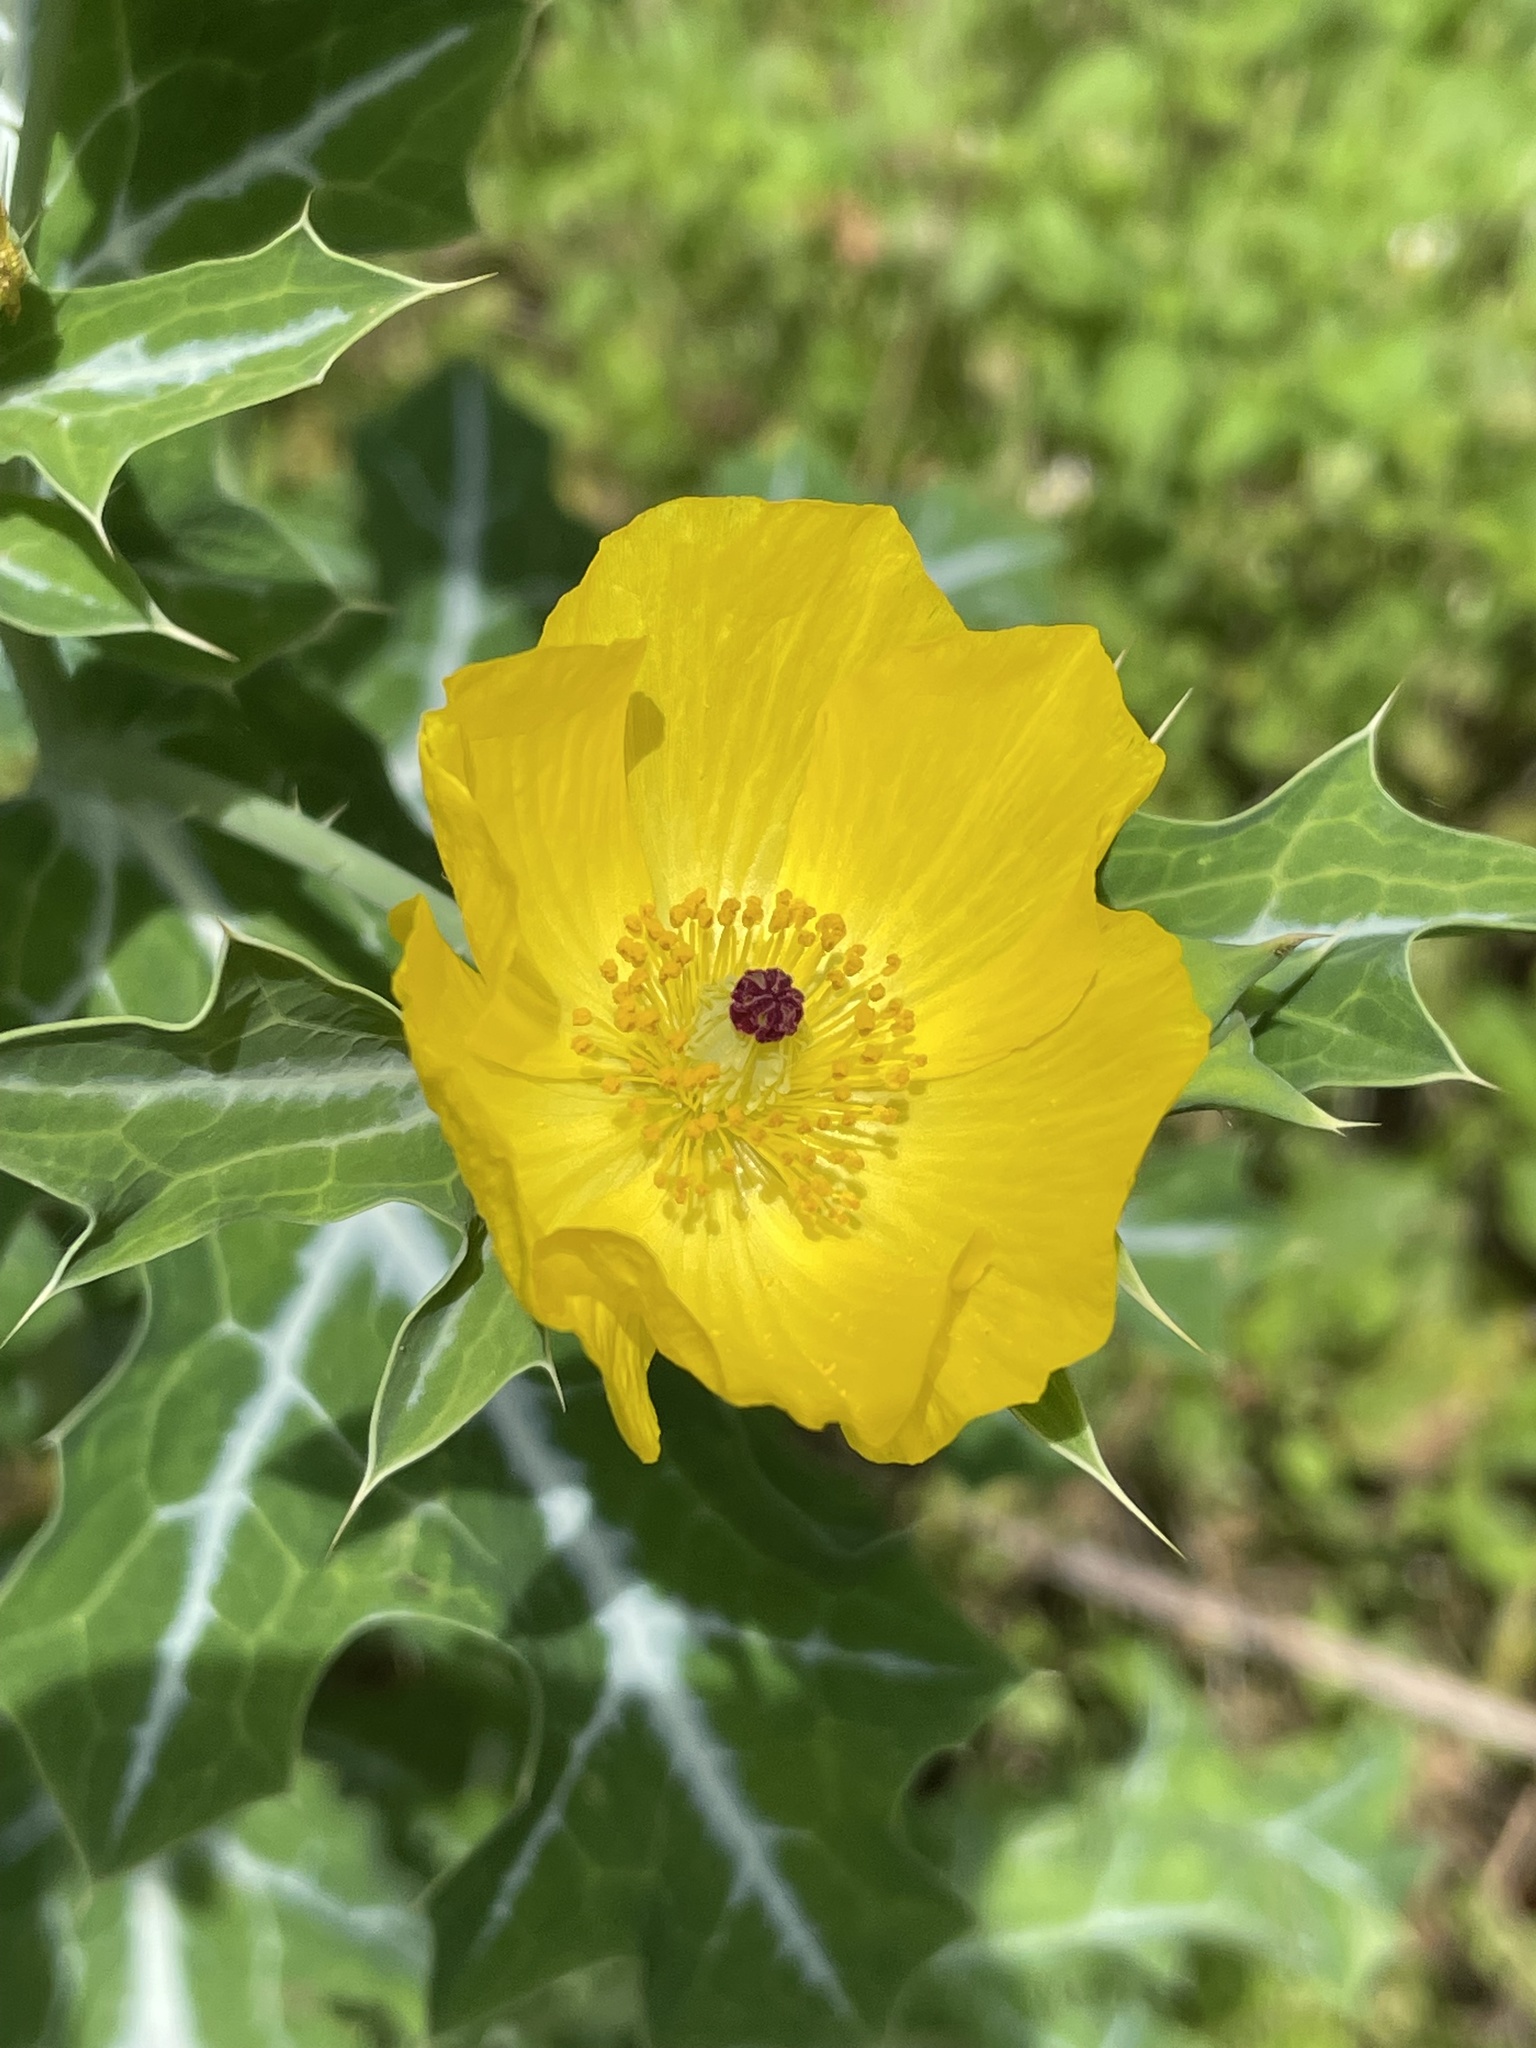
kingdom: Plantae
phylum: Tracheophyta
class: Magnoliopsida
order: Ranunculales
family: Papaveraceae
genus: Argemone
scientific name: Argemone mexicana
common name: Mexican poppy
